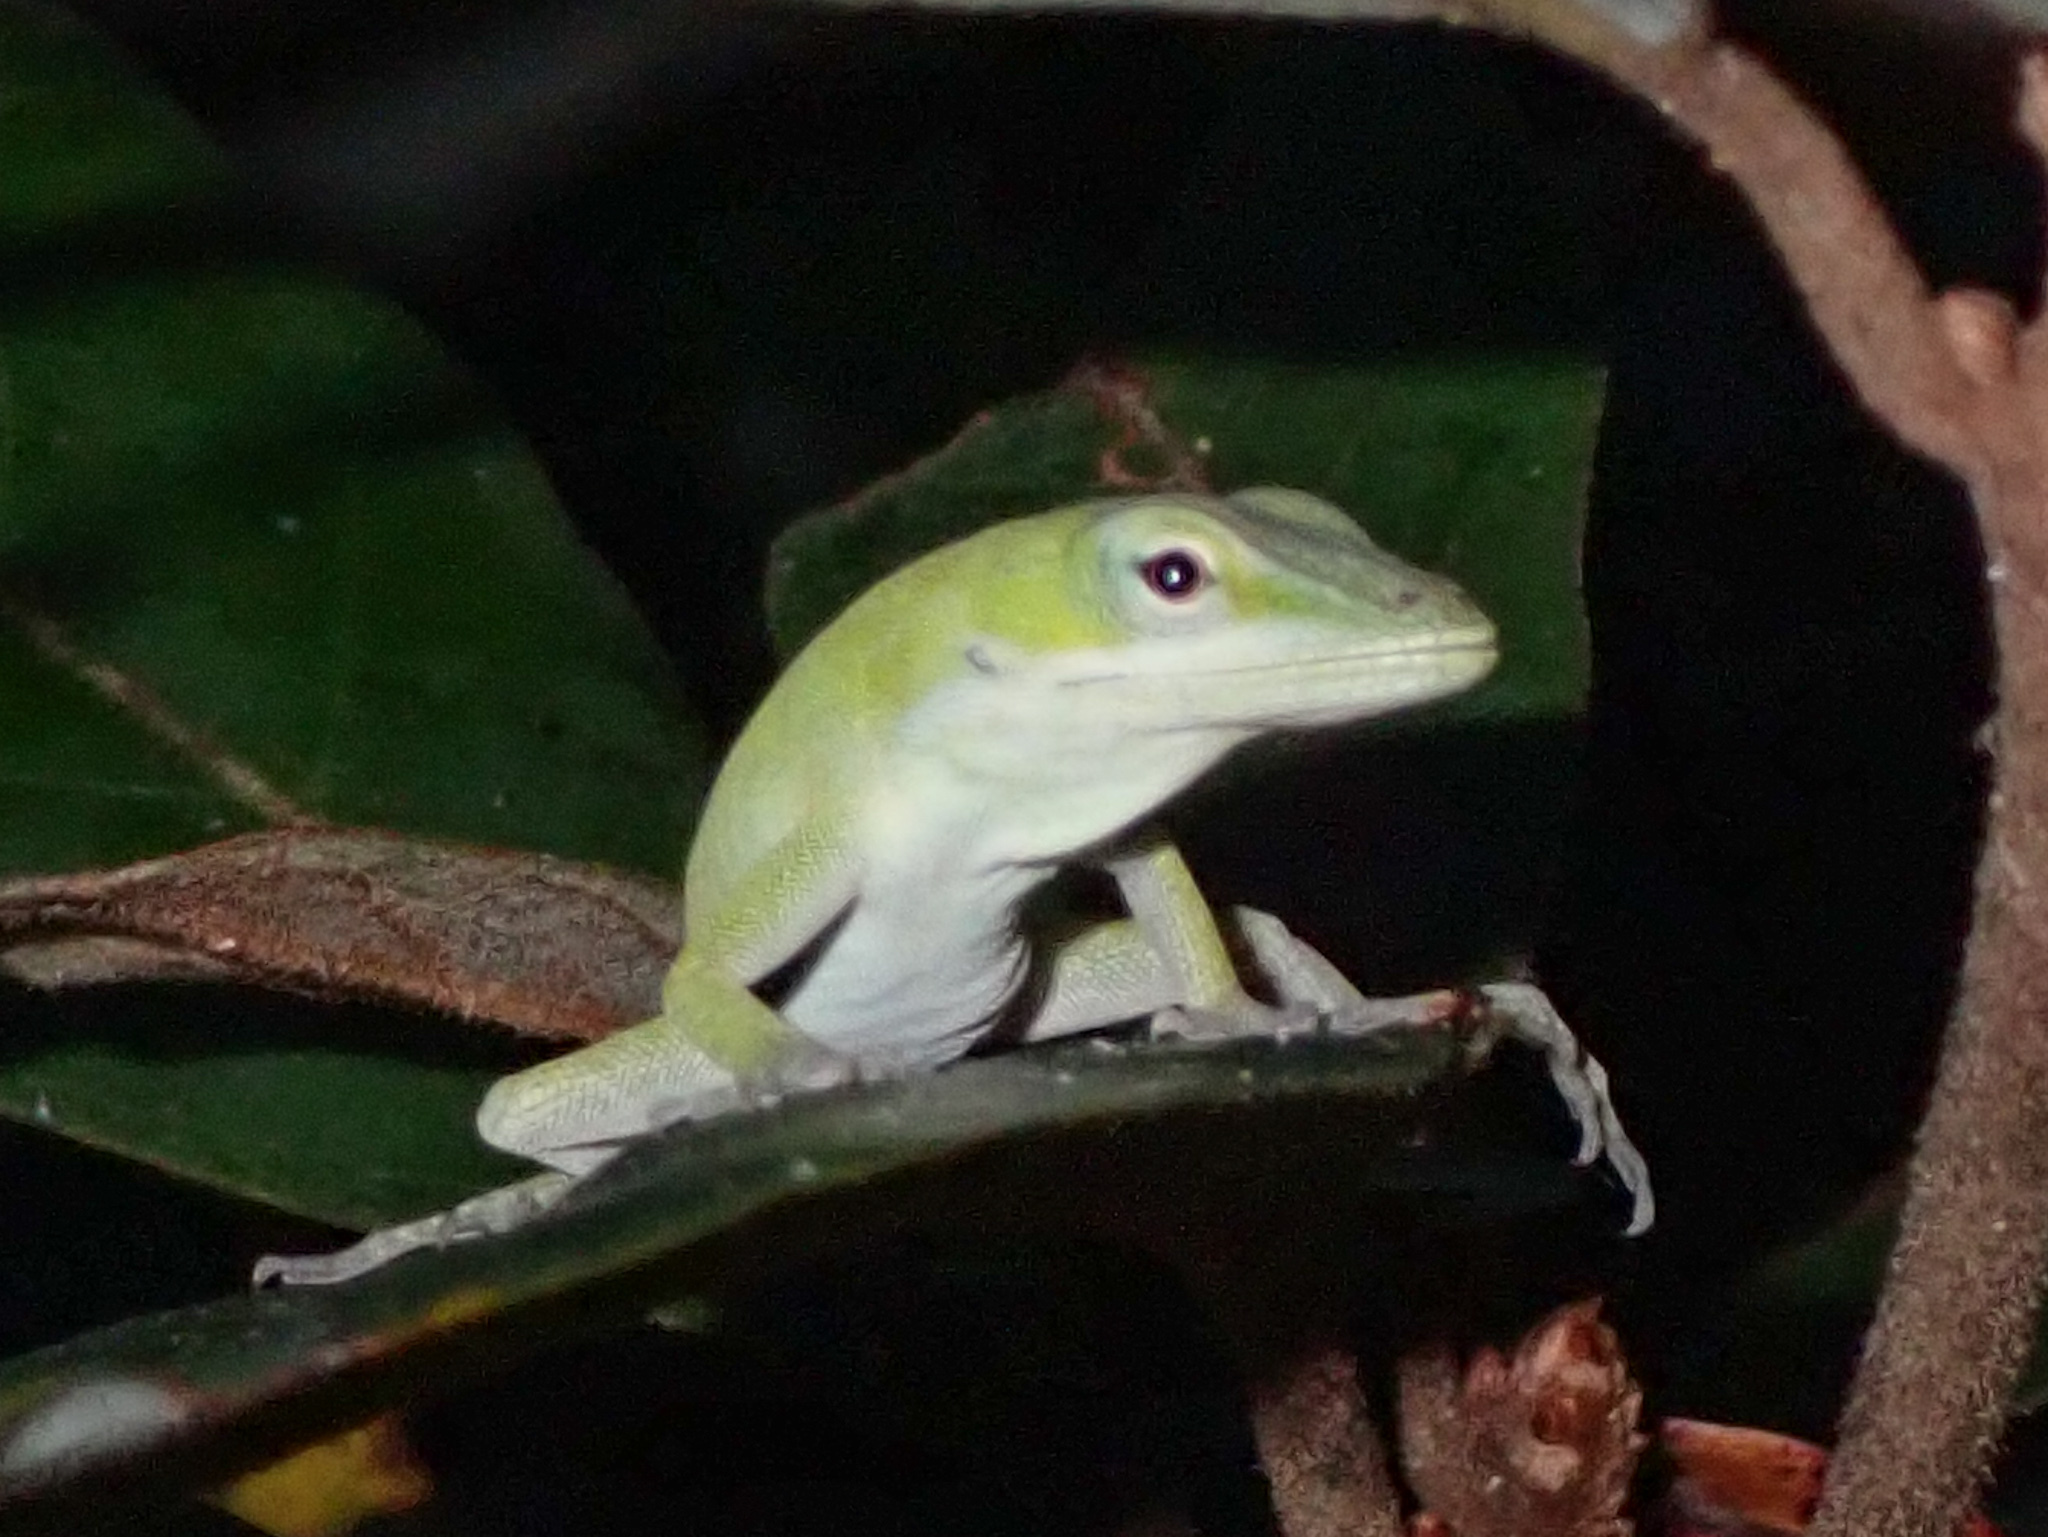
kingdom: Animalia
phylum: Chordata
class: Squamata
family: Dactyloidae
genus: Anolis
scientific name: Anolis carolinensis
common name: Green anole
